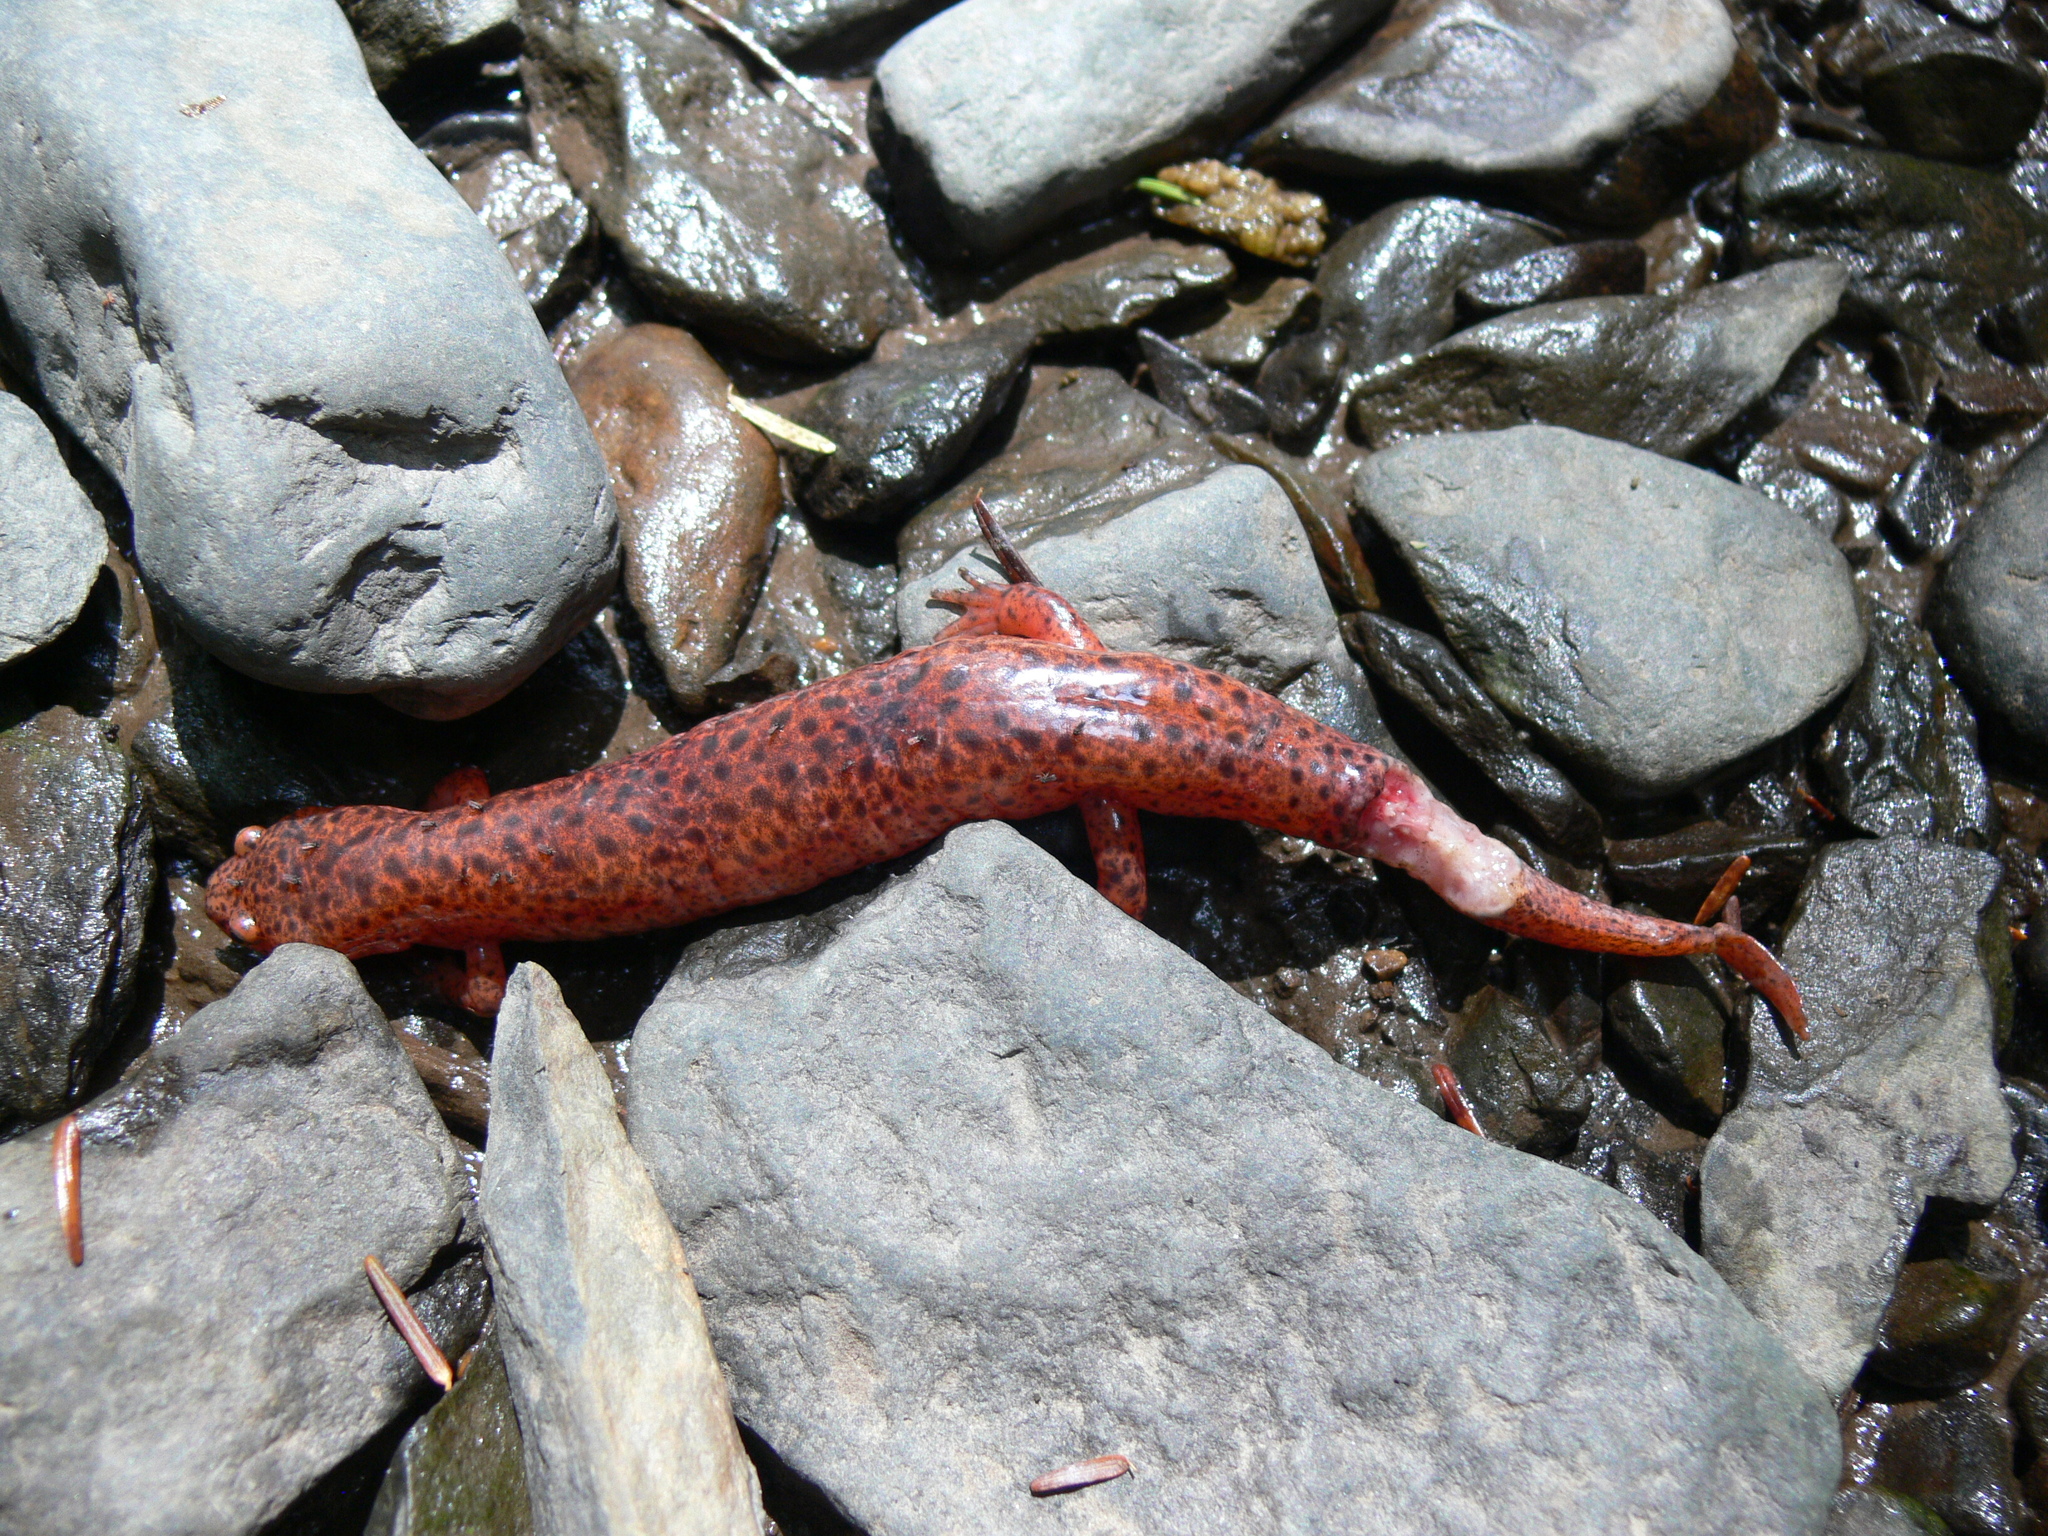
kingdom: Animalia
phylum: Chordata
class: Amphibia
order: Caudata
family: Plethodontidae
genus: Pseudotriton
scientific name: Pseudotriton ruber
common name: Red salamander
